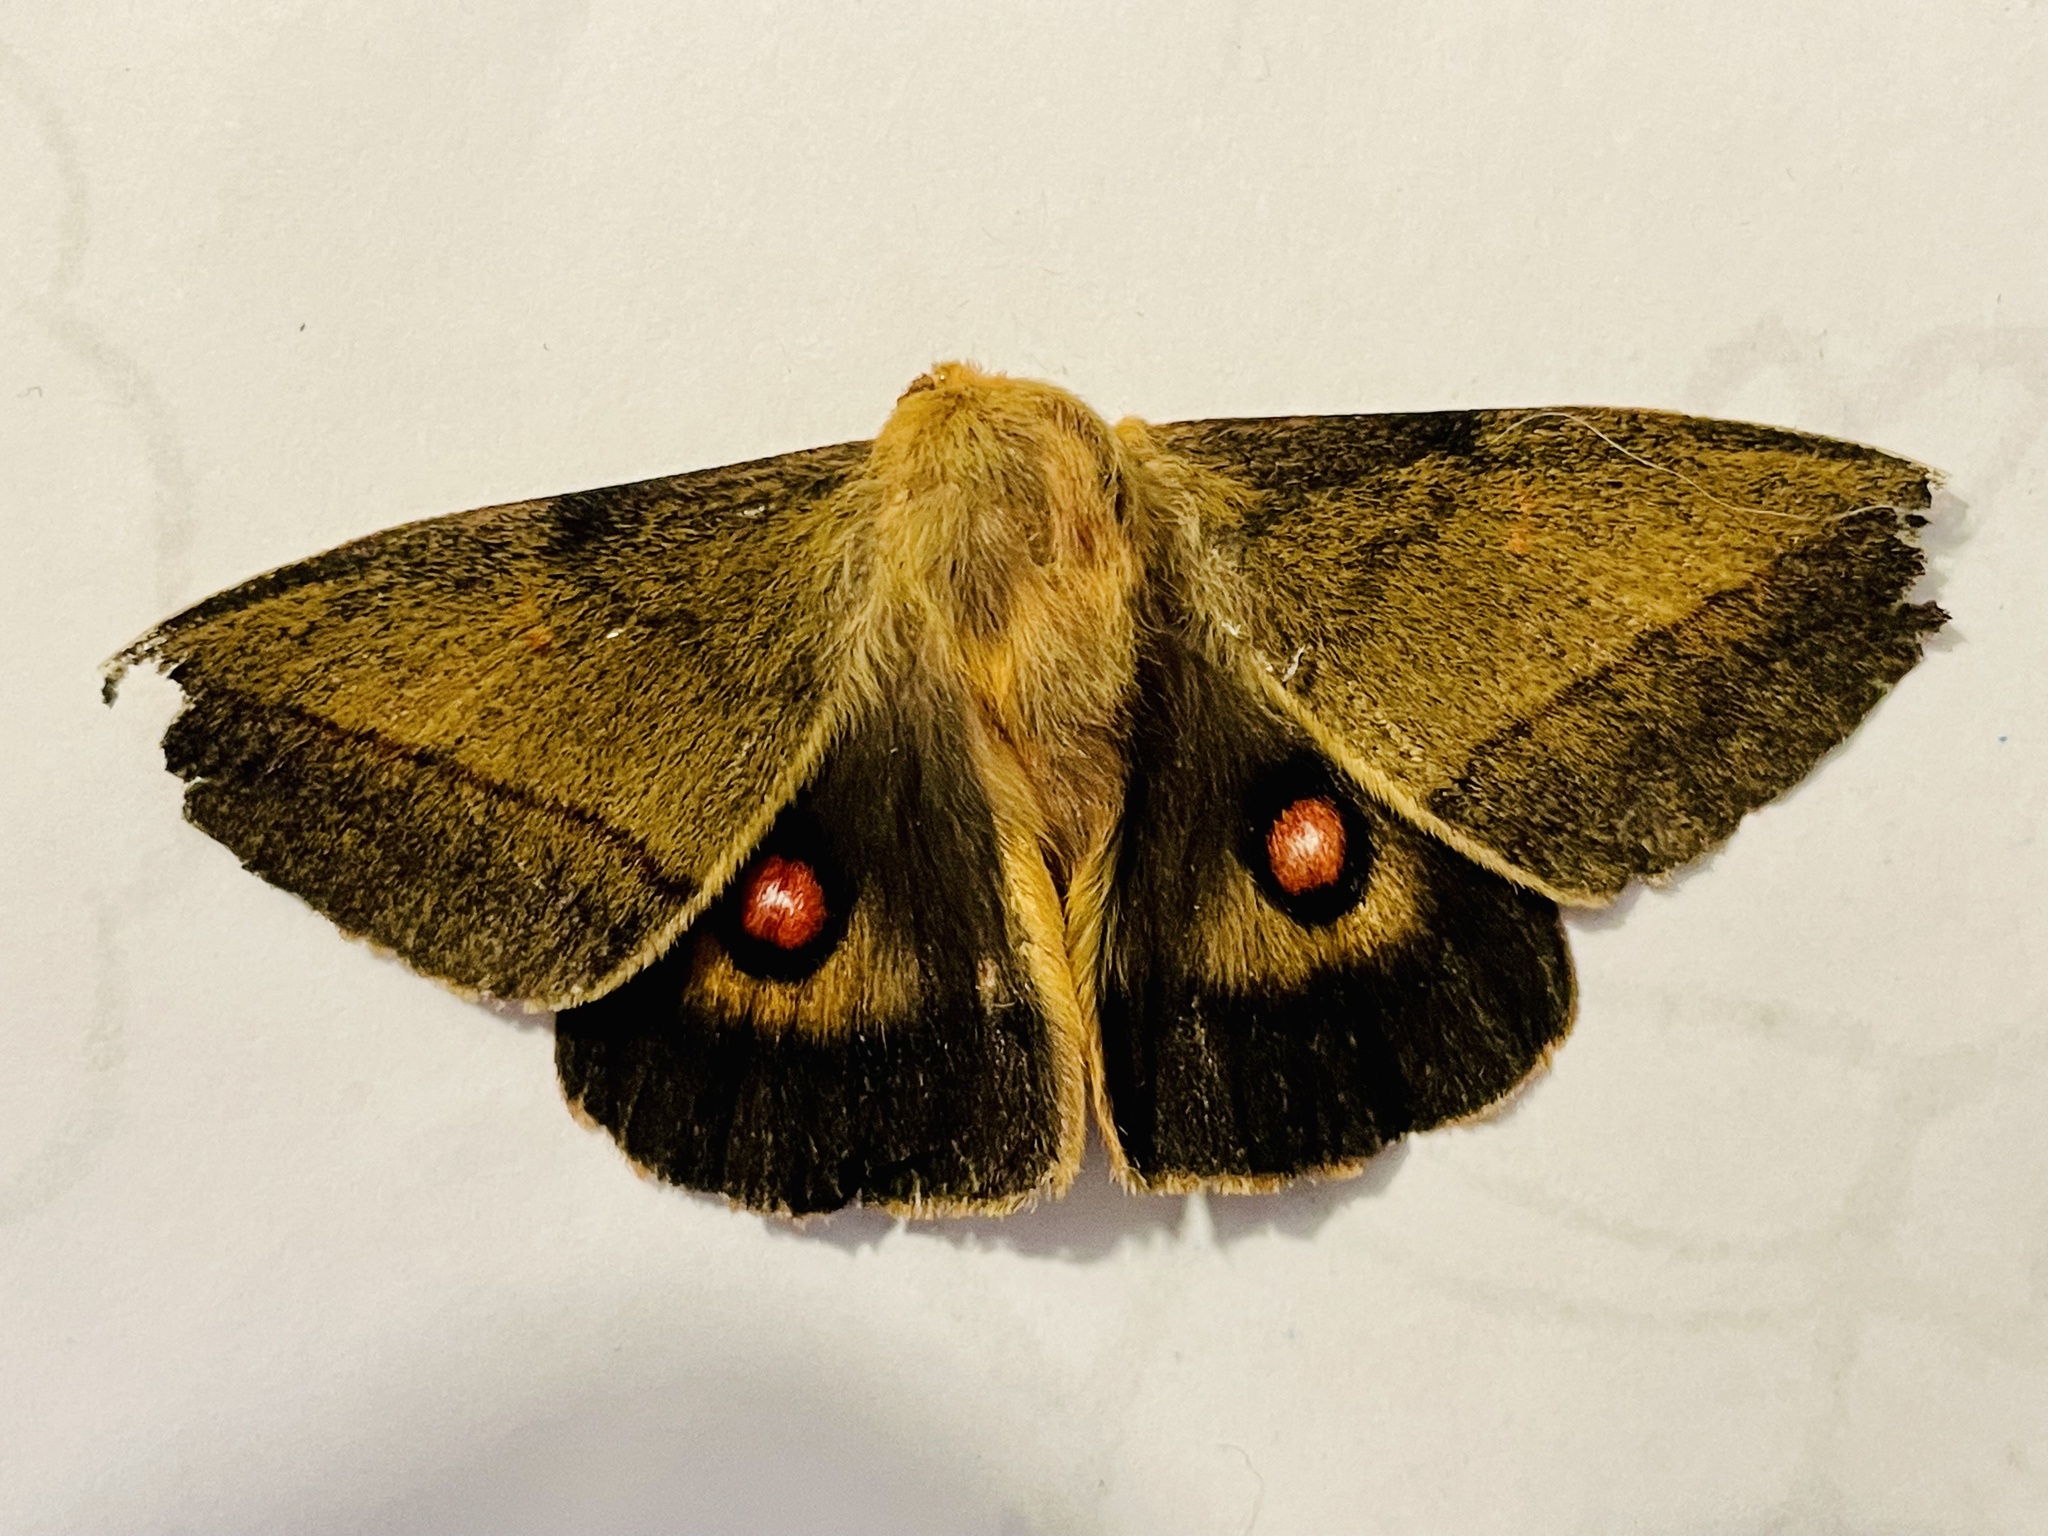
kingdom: Animalia
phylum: Arthropoda
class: Insecta
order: Lepidoptera
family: Saturniidae
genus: Adetomeris
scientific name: Adetomeris erythrops
